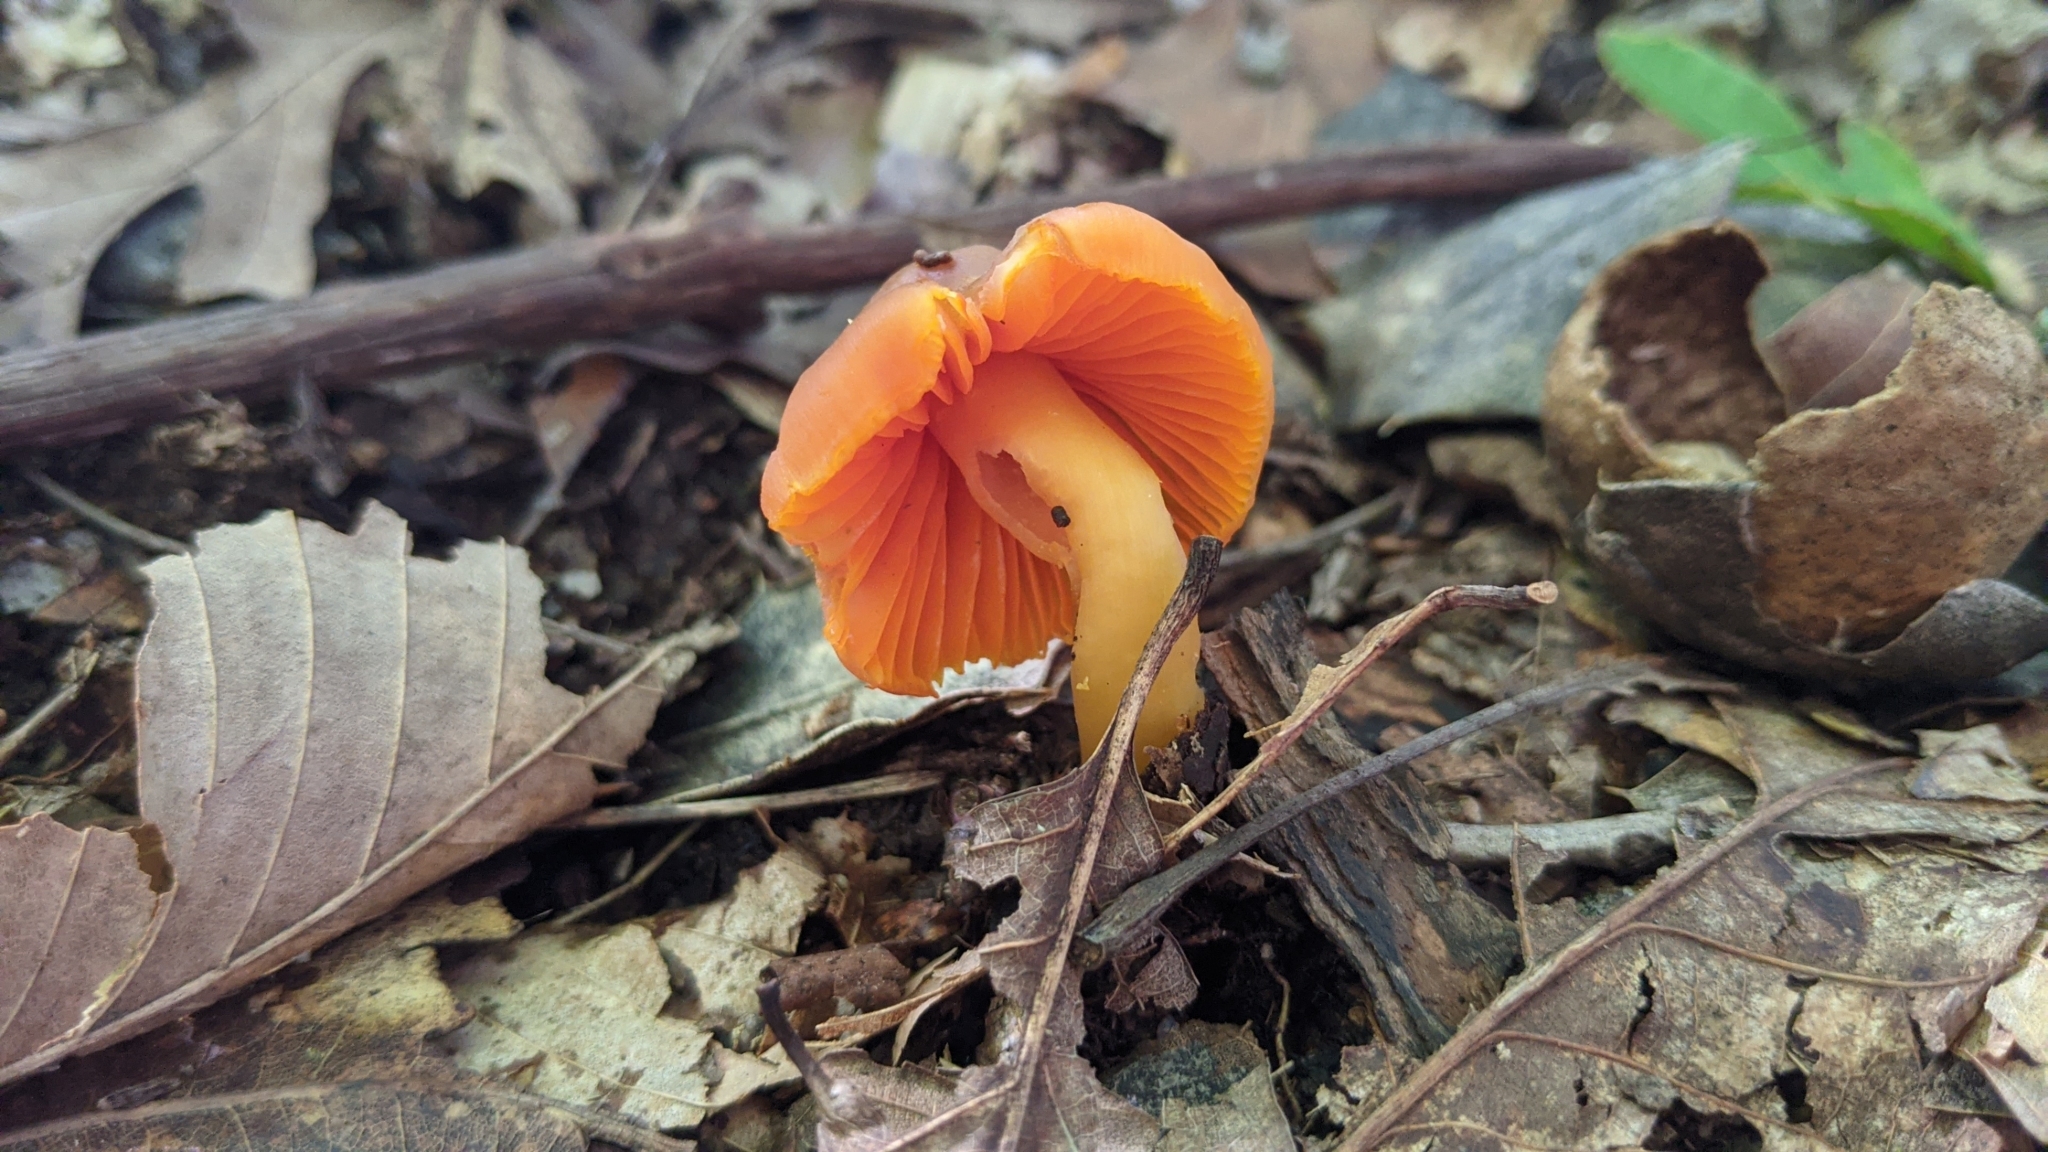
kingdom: Fungi
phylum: Basidiomycota
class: Agaricomycetes
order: Agaricales
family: Hygrophoraceae
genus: Humidicutis
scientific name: Humidicutis marginata
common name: Orange gilled waxcap
